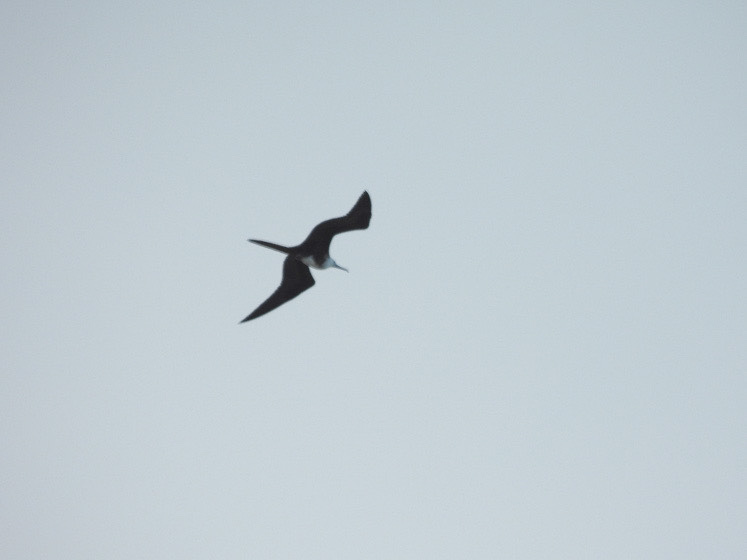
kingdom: Animalia
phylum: Chordata
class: Aves
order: Suliformes
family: Fregatidae
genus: Fregata
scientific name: Fregata magnificens
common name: Magnificent frigatebird
